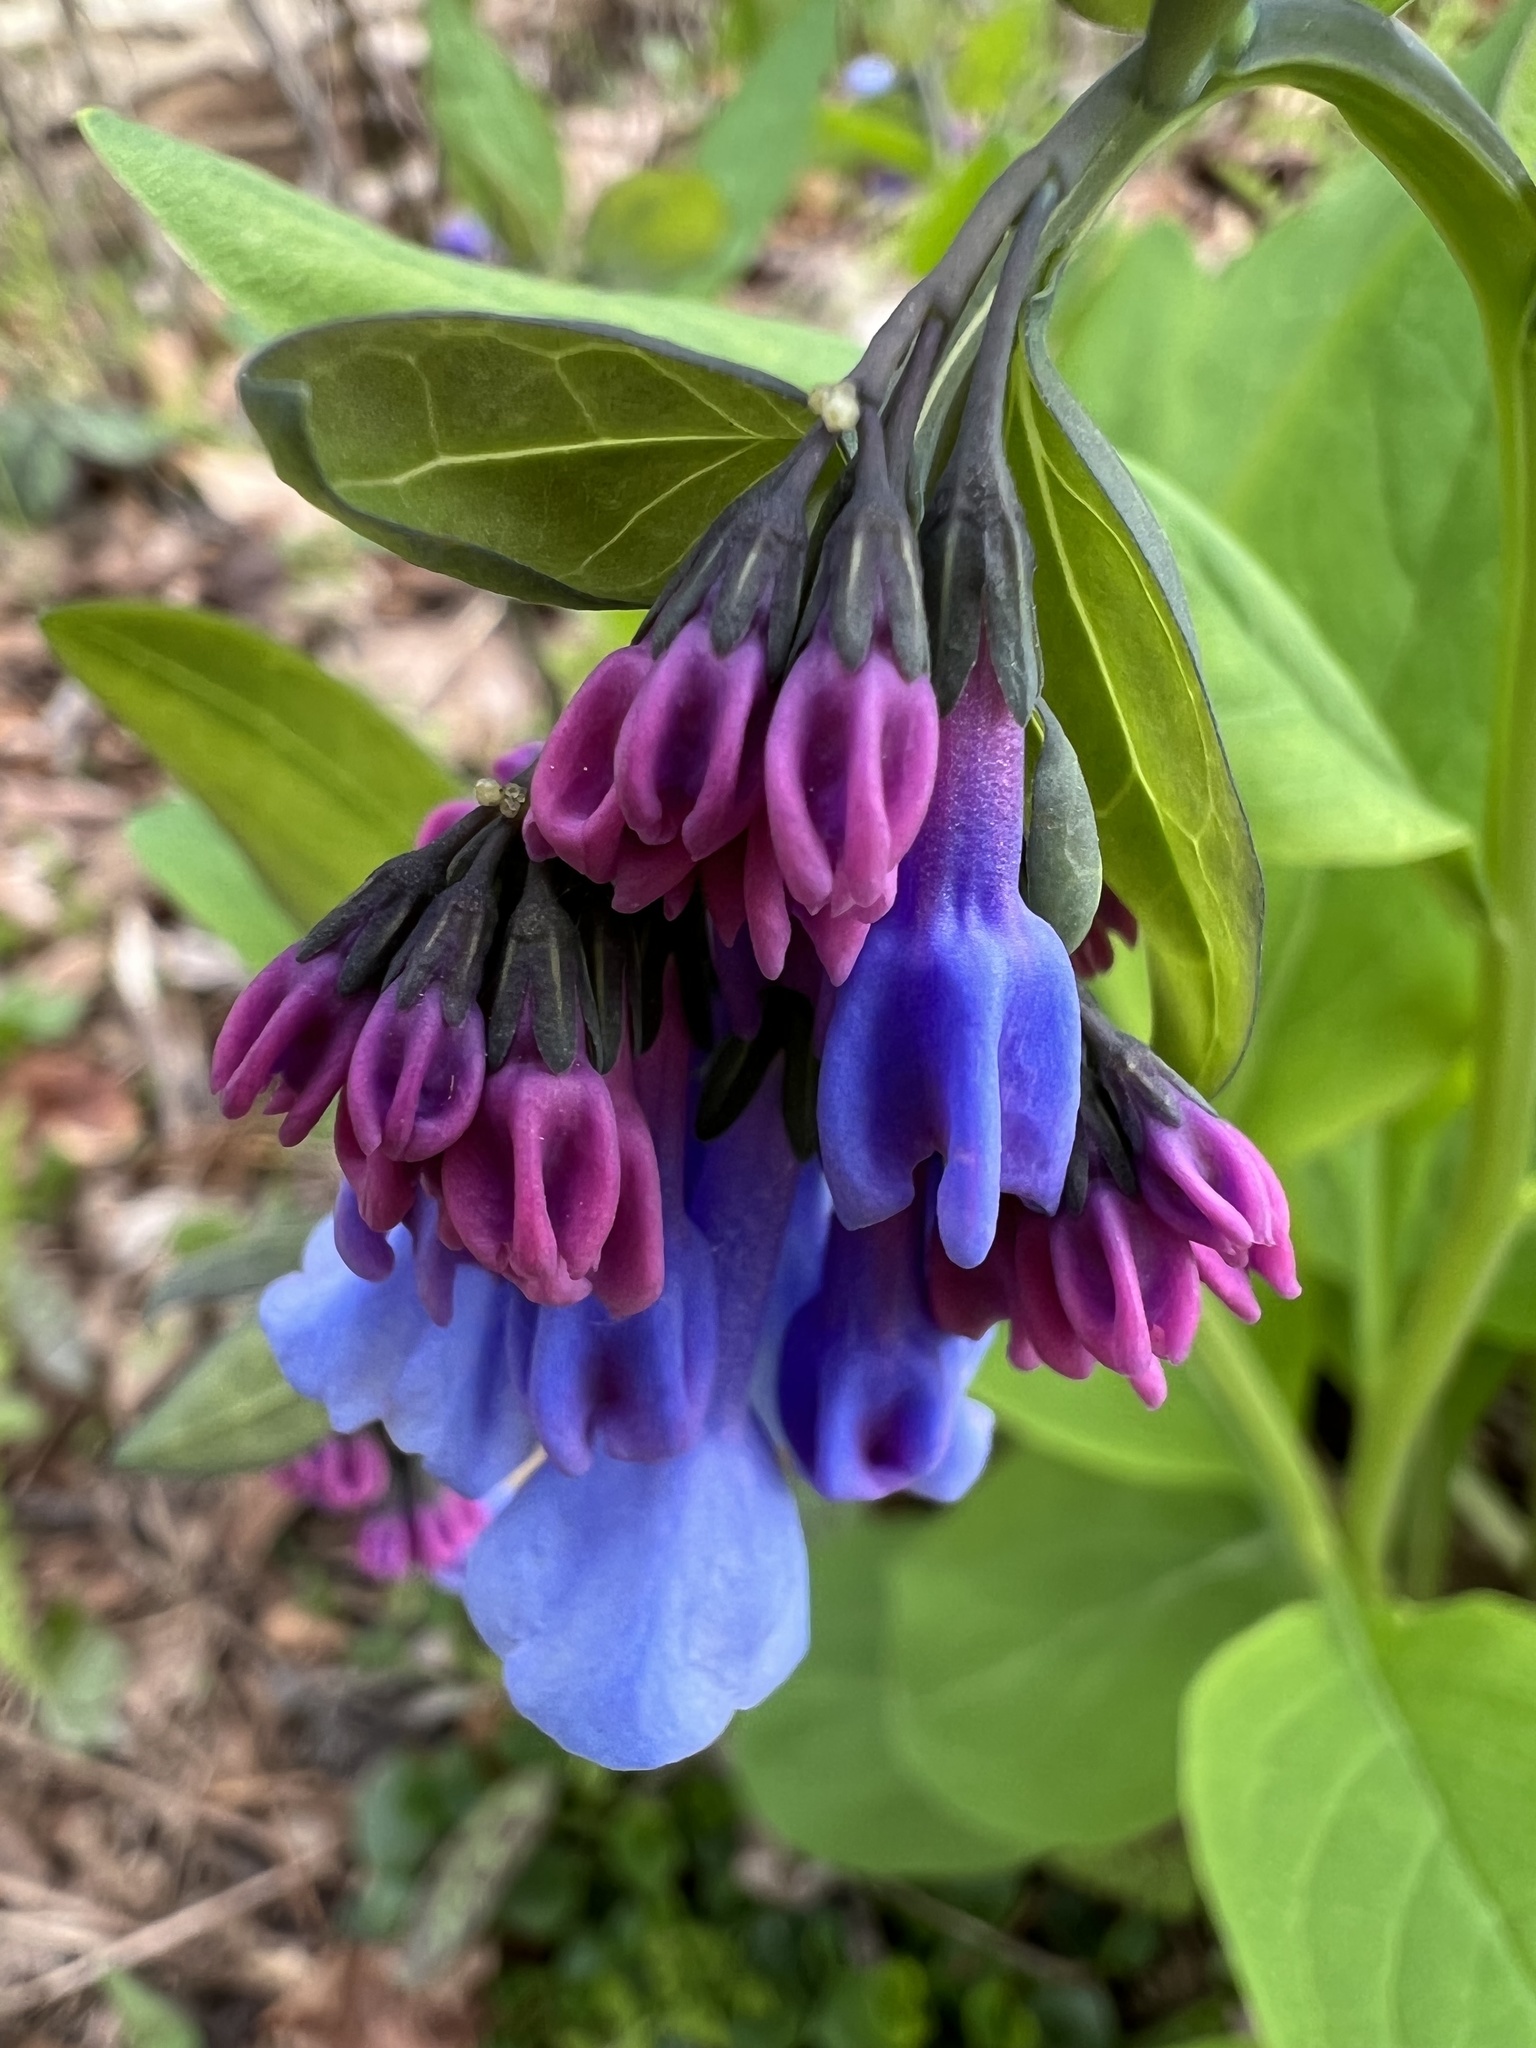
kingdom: Plantae
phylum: Tracheophyta
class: Magnoliopsida
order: Boraginales
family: Boraginaceae
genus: Mertensia
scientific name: Mertensia virginica
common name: Virginia bluebells
